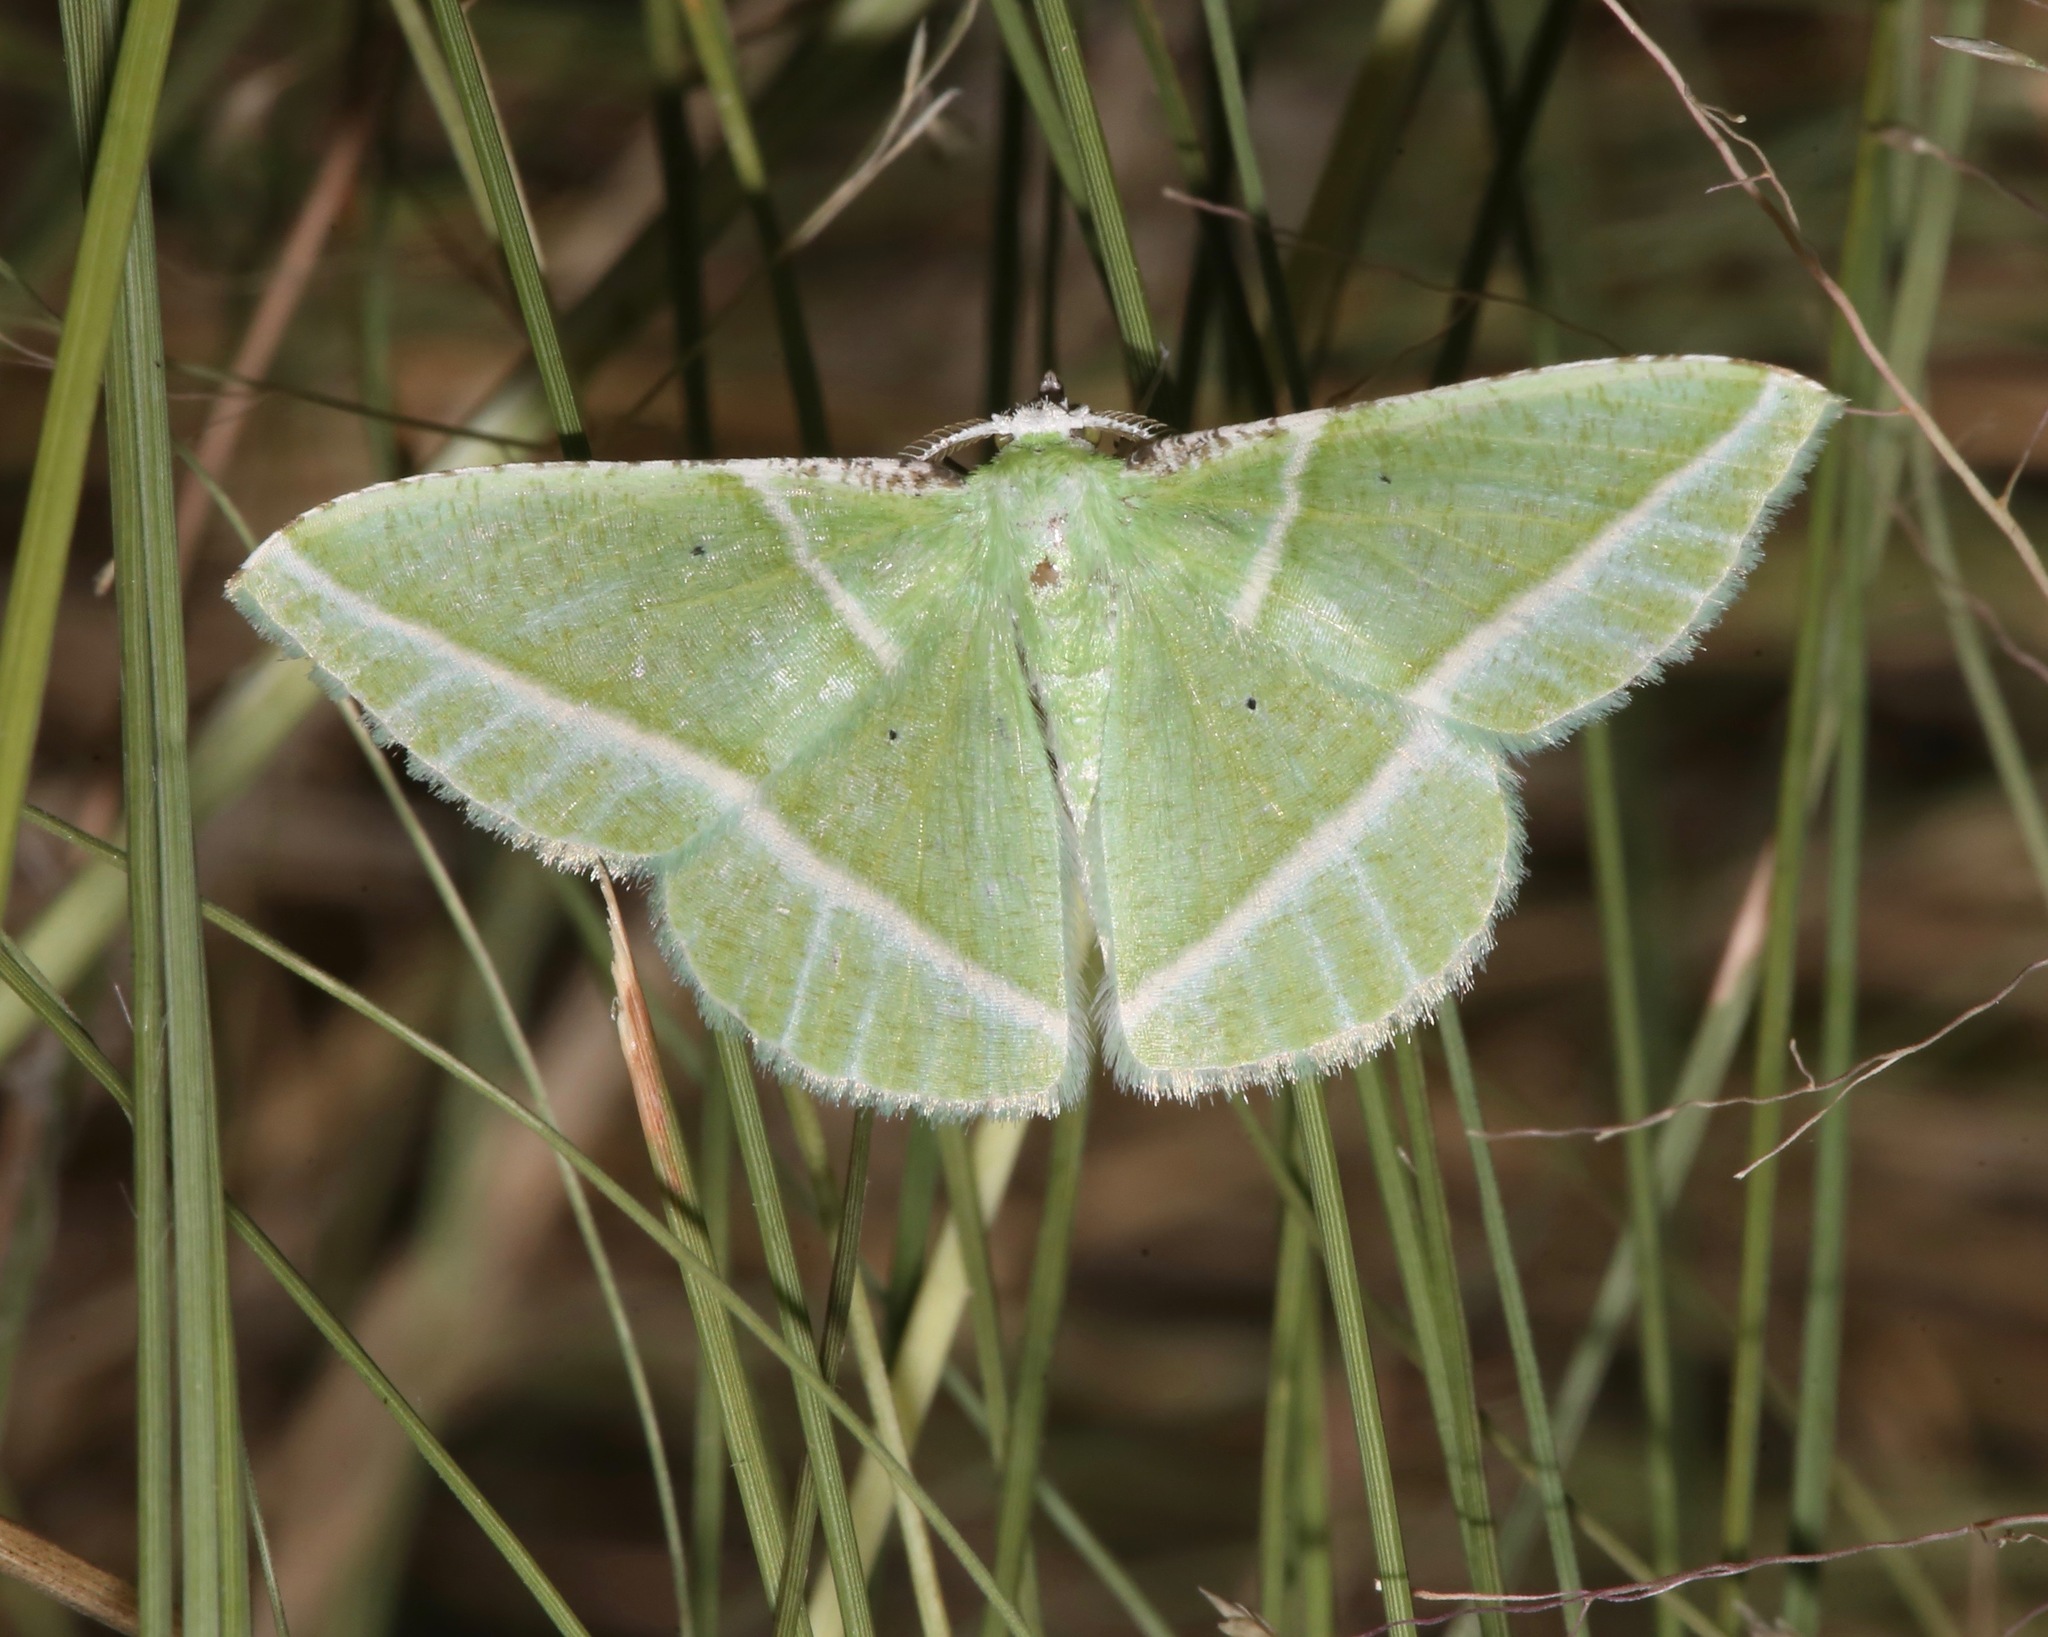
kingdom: Animalia
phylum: Arthropoda
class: Insecta
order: Lepidoptera
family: Geometridae
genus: Dichorda
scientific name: Dichorda consequaria
